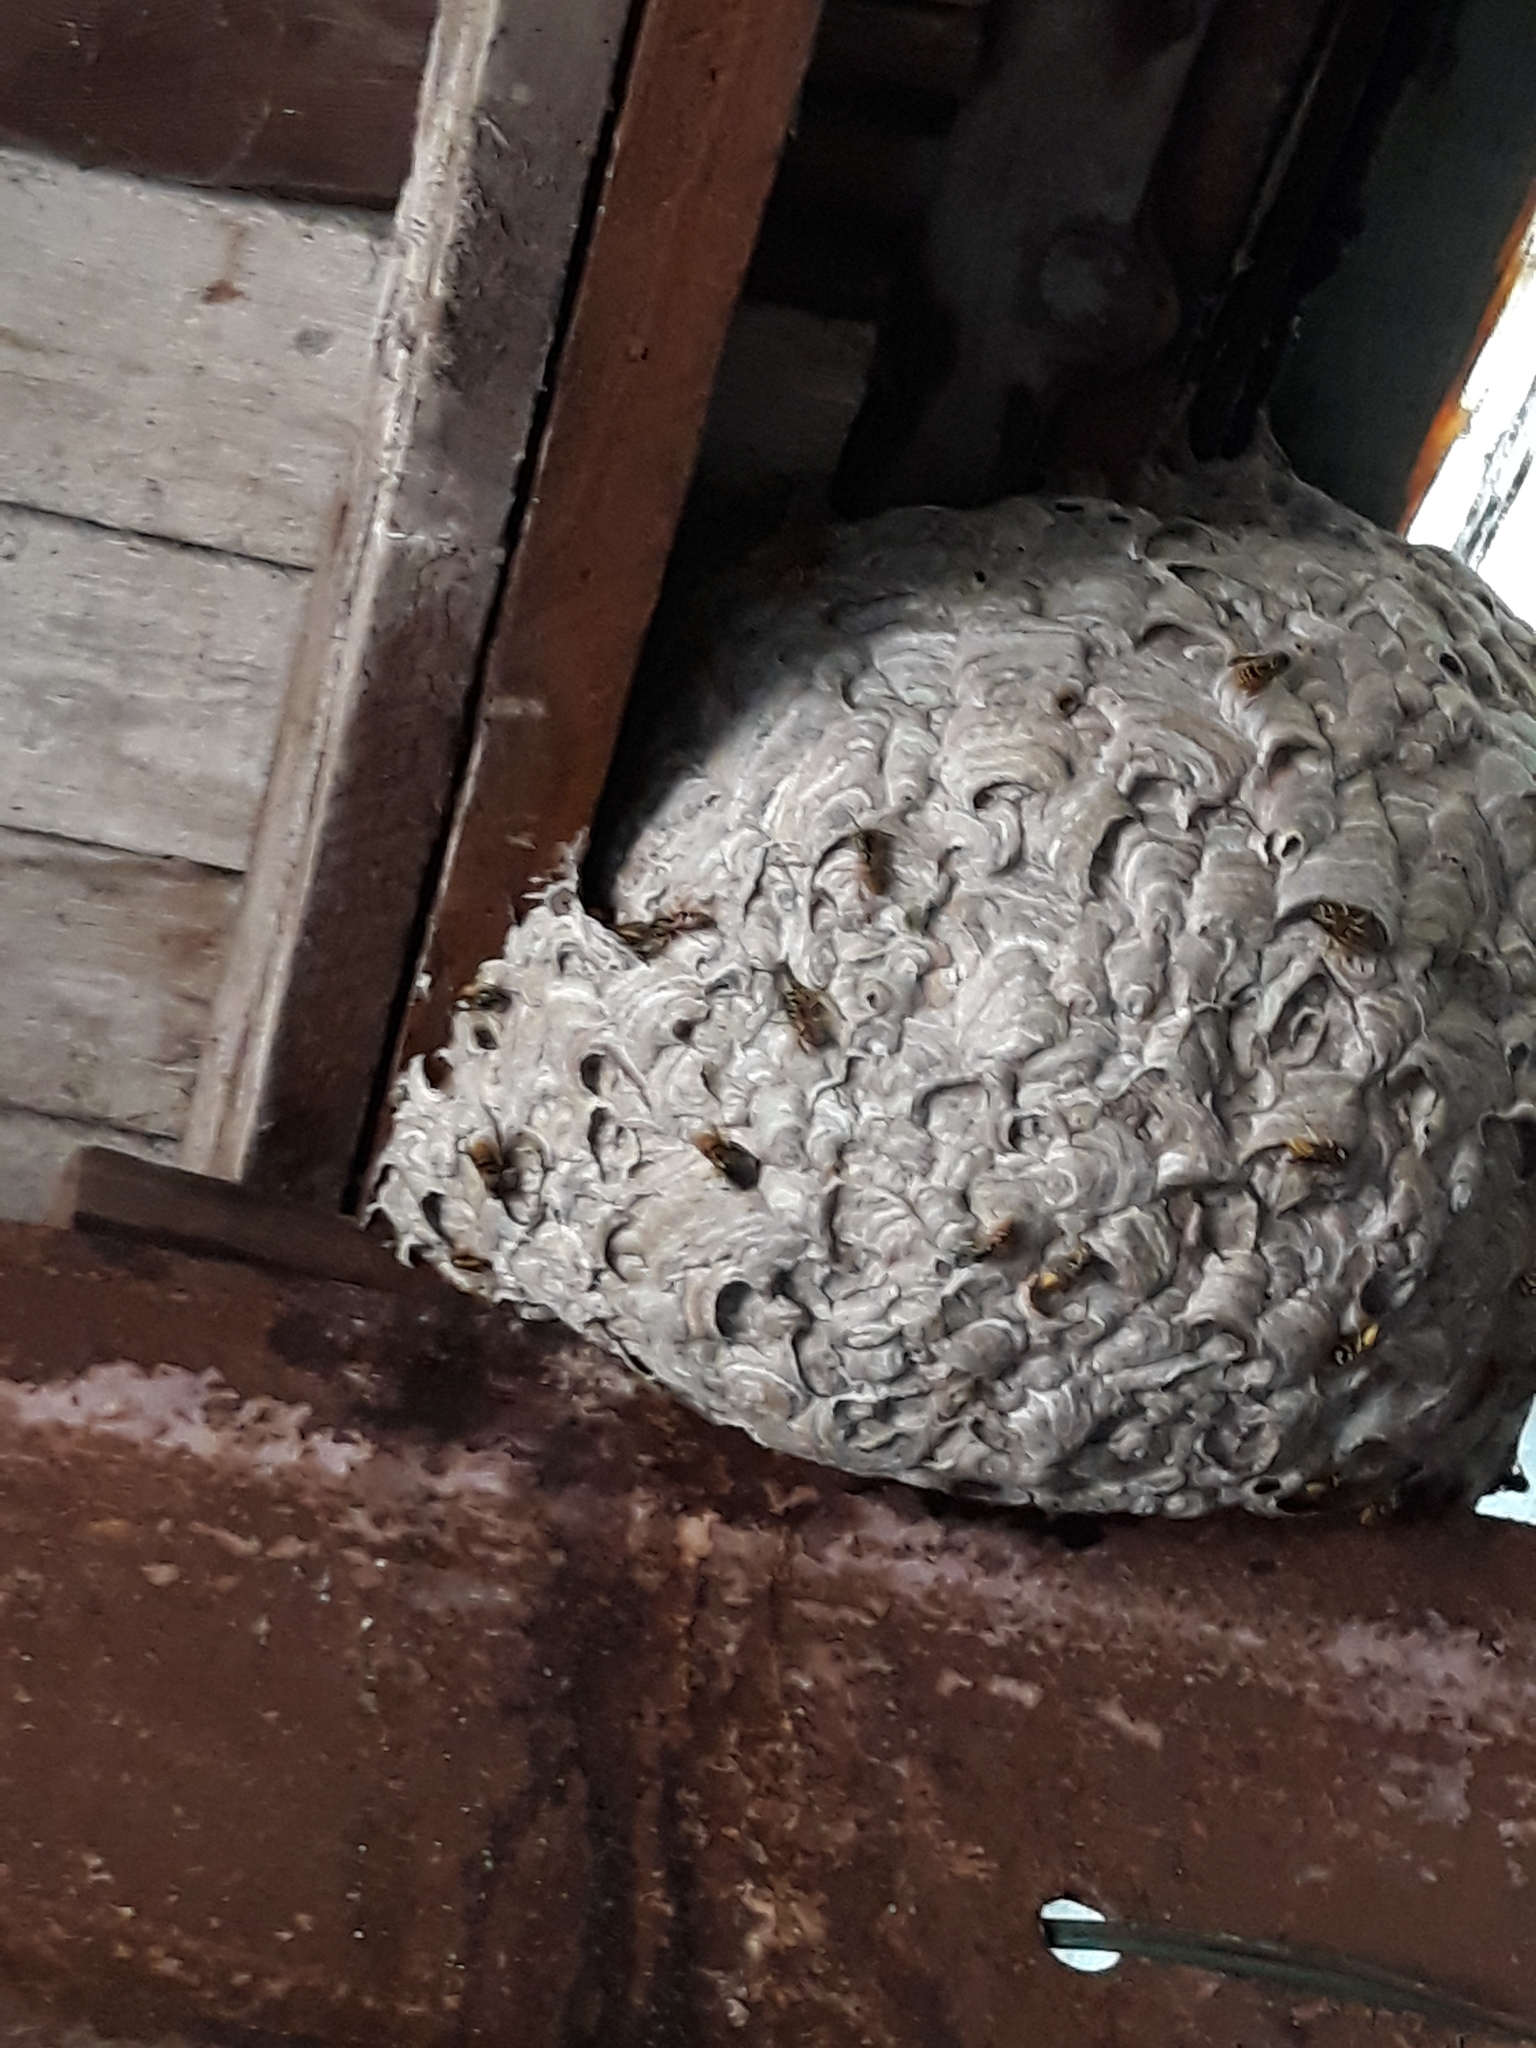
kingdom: Animalia
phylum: Arthropoda
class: Insecta
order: Hymenoptera
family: Vespidae
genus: Vespula
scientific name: Vespula germanica
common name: German wasp
